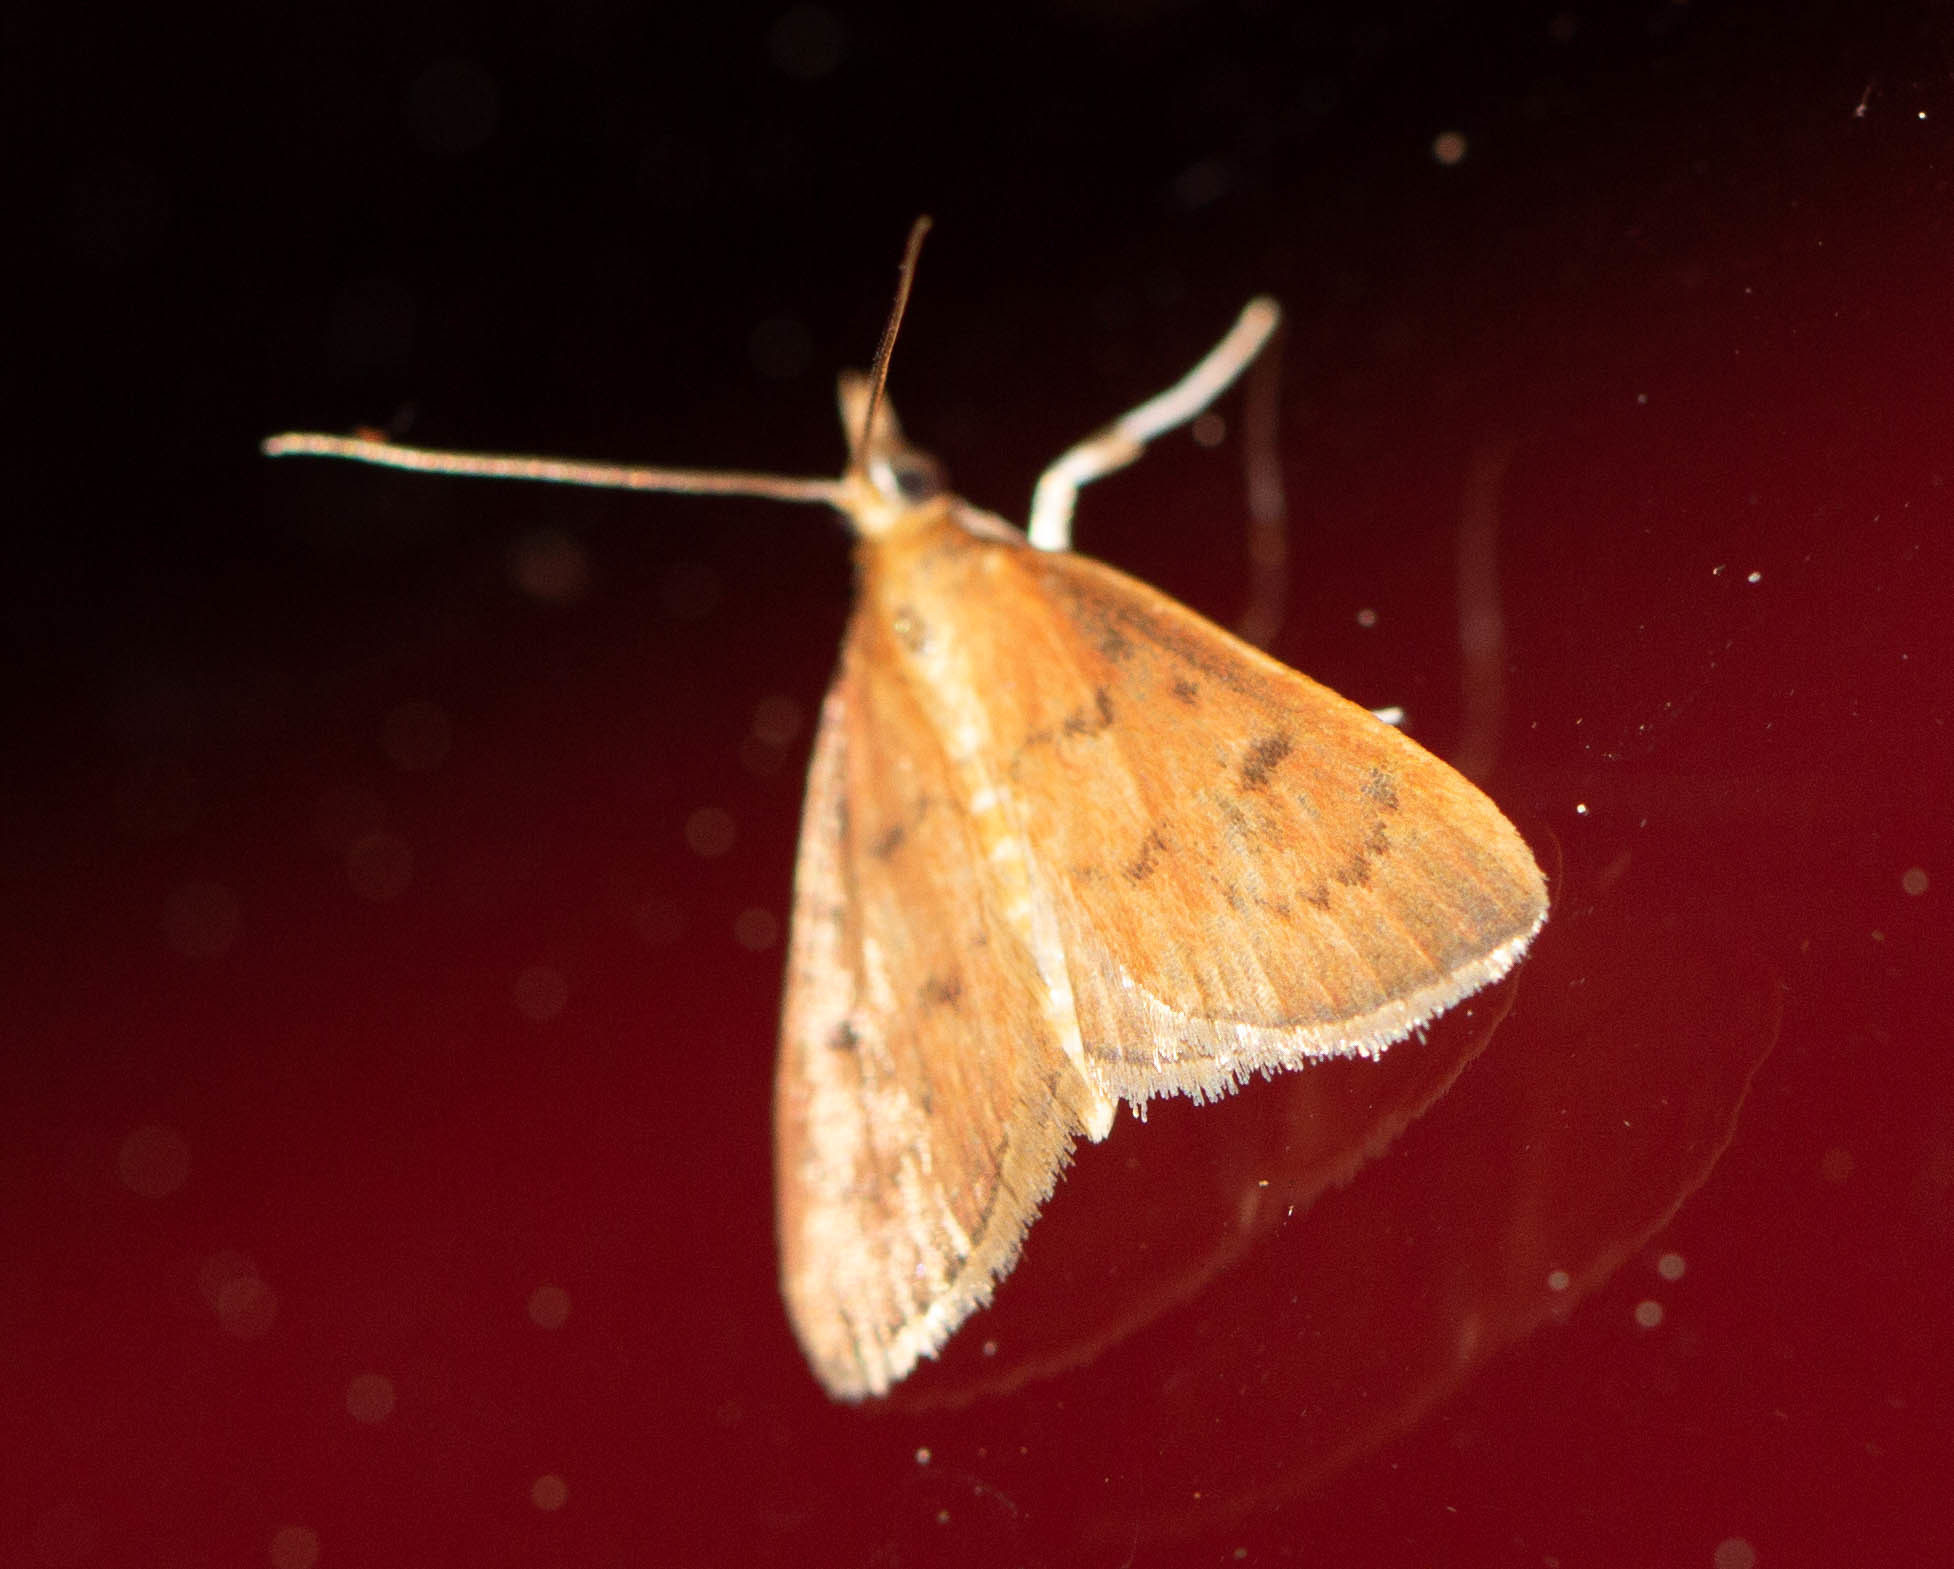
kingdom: Animalia
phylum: Arthropoda
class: Insecta
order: Lepidoptera
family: Crambidae
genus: Oenobotys
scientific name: Oenobotys vinotinctalis
